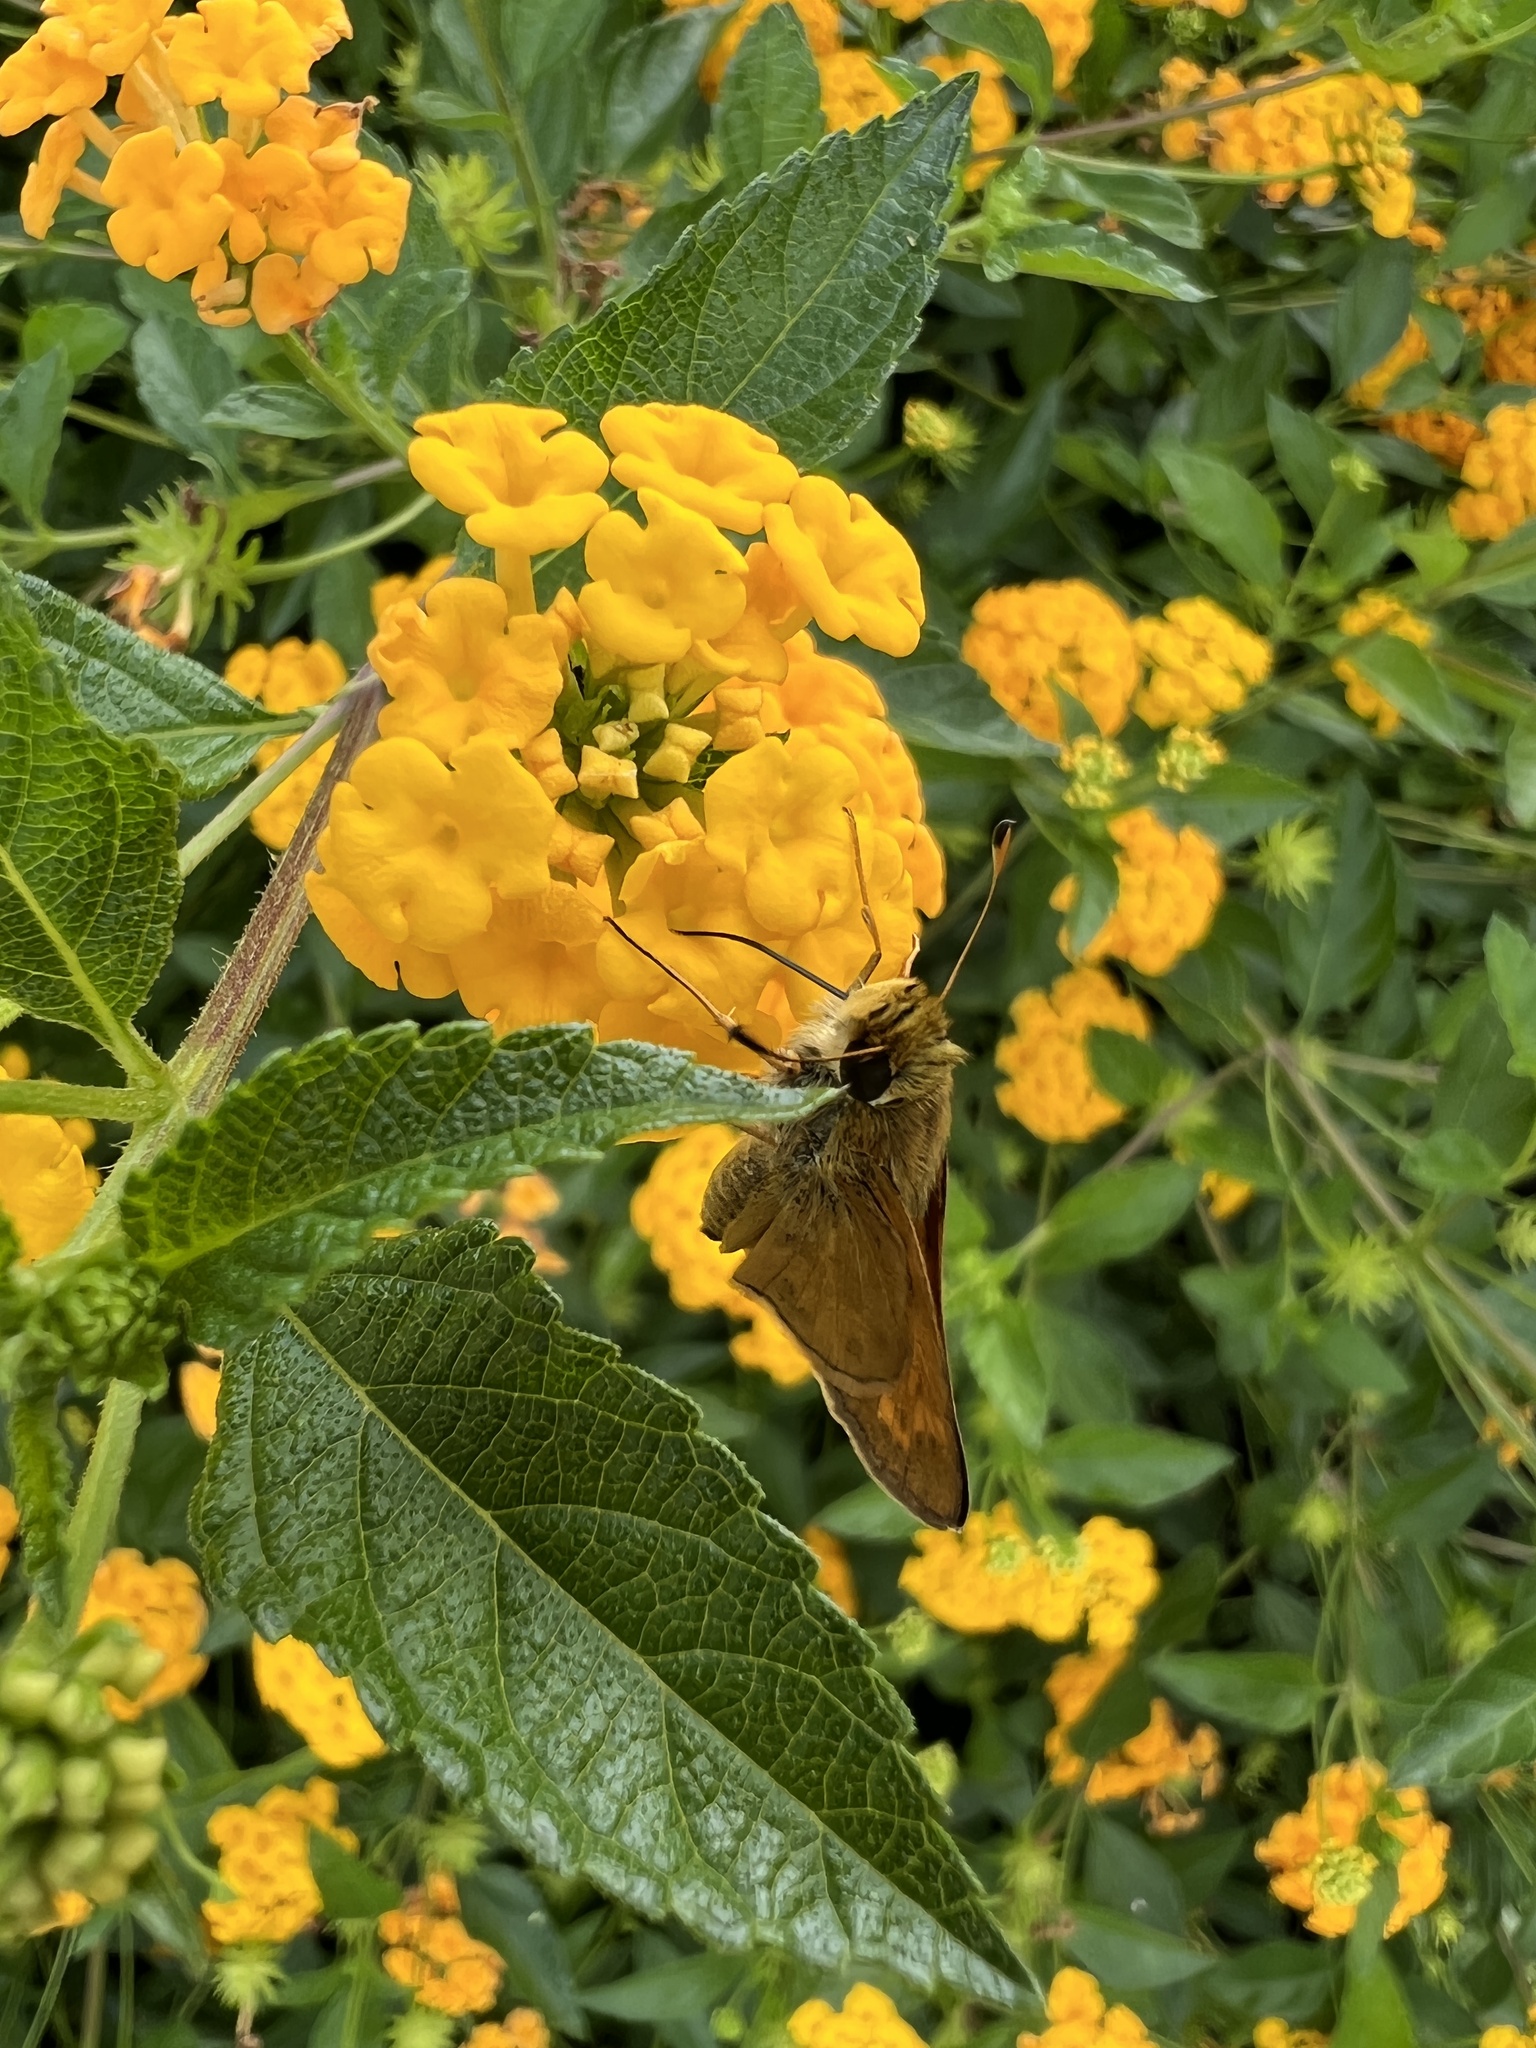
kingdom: Animalia
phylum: Arthropoda
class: Insecta
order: Lepidoptera
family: Hesperiidae
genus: Atalopedes
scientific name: Atalopedes
